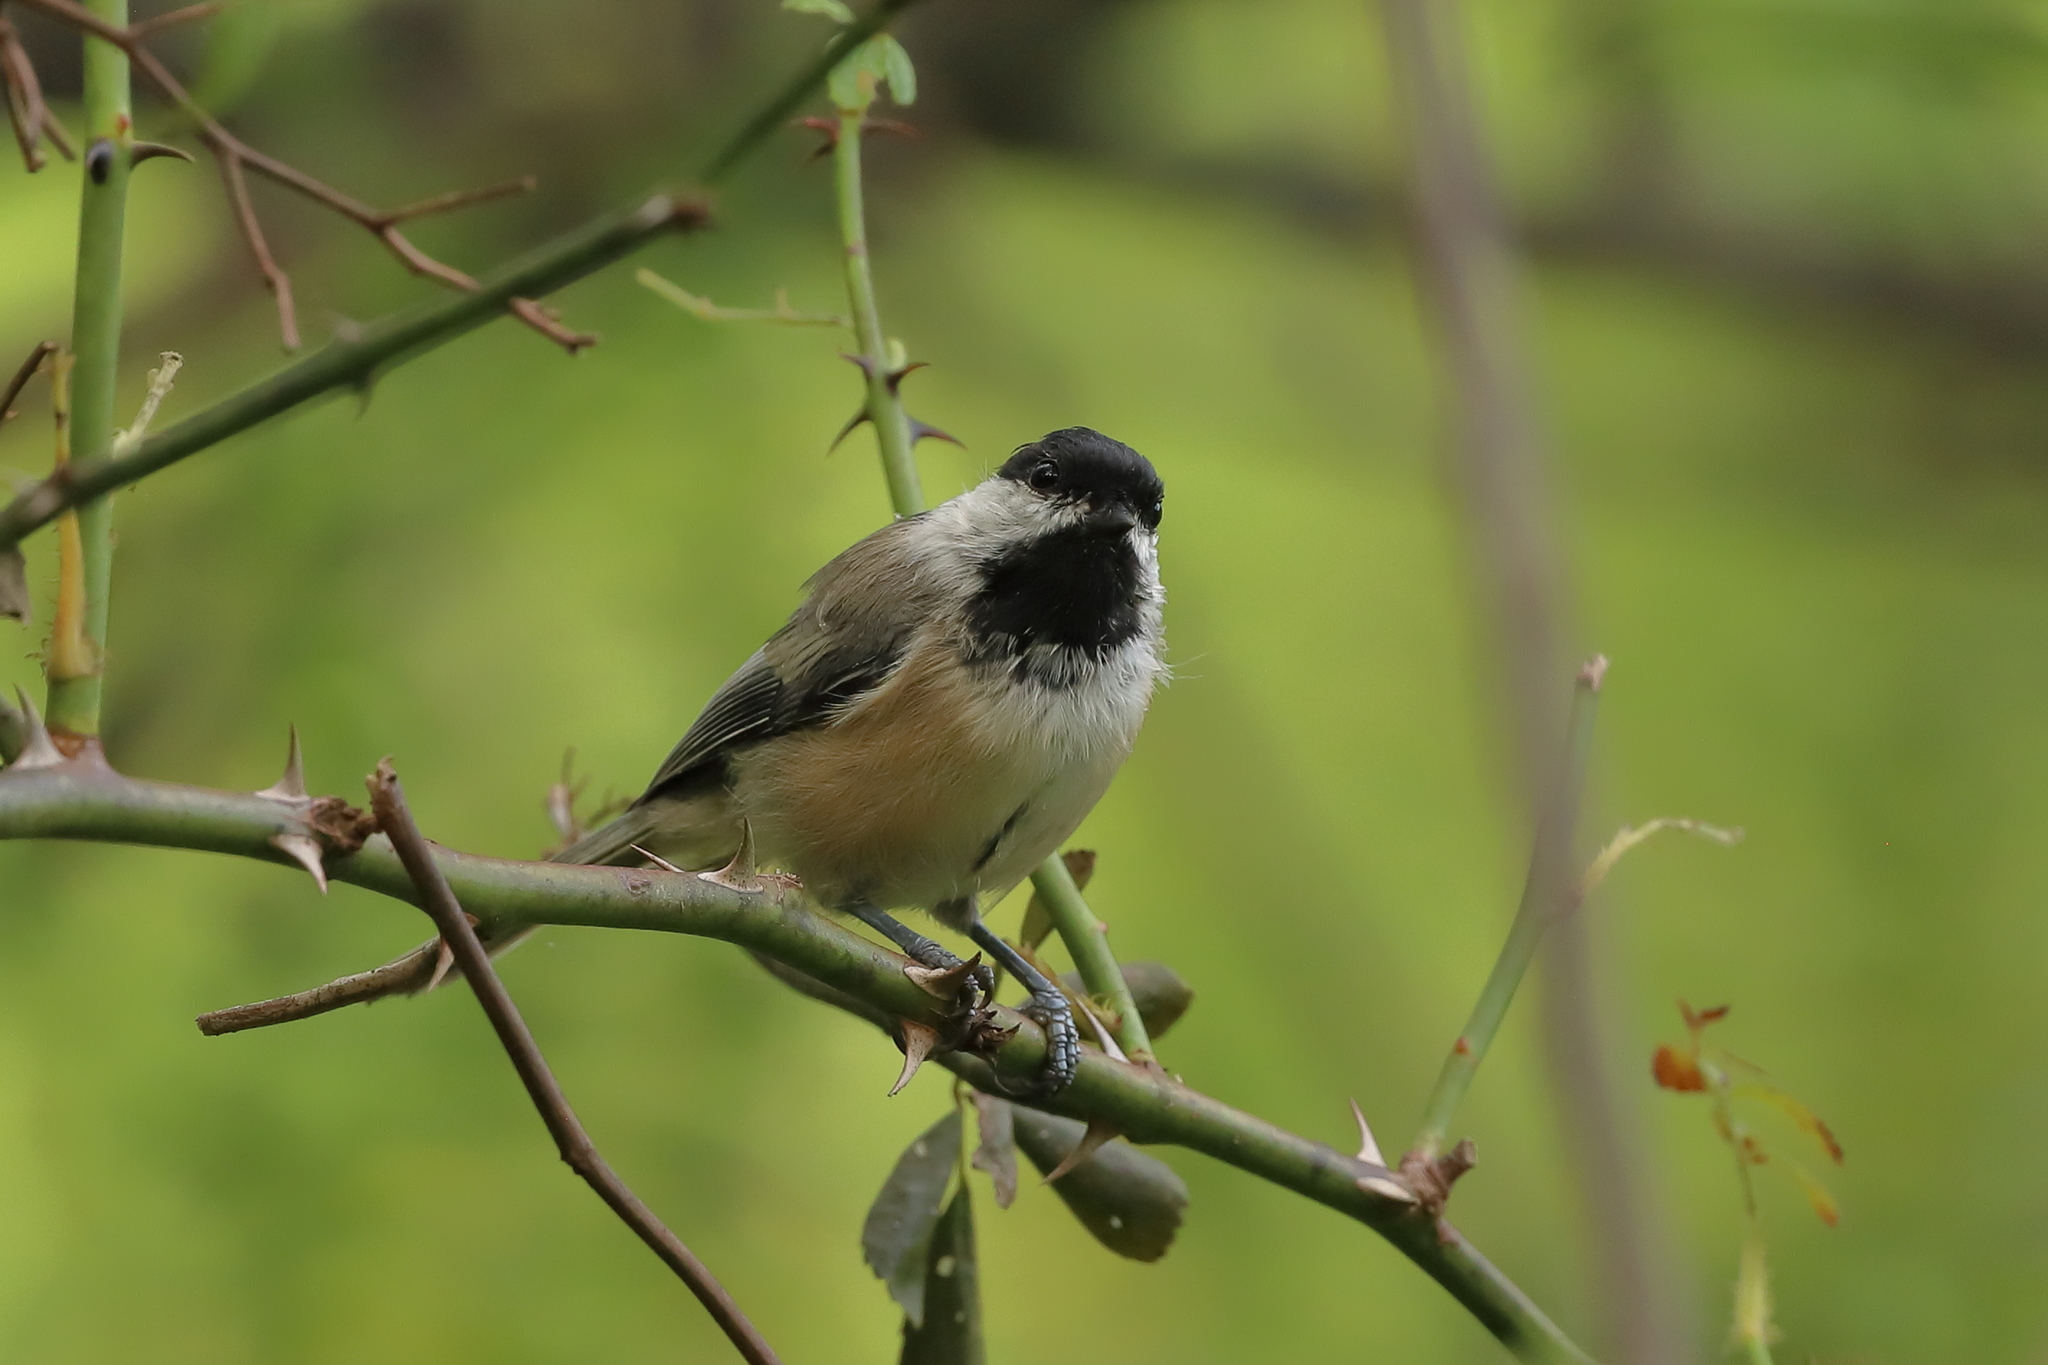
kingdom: Animalia
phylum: Chordata
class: Aves
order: Passeriformes
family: Paridae
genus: Poecile
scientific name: Poecile atricapillus
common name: Black-capped chickadee
